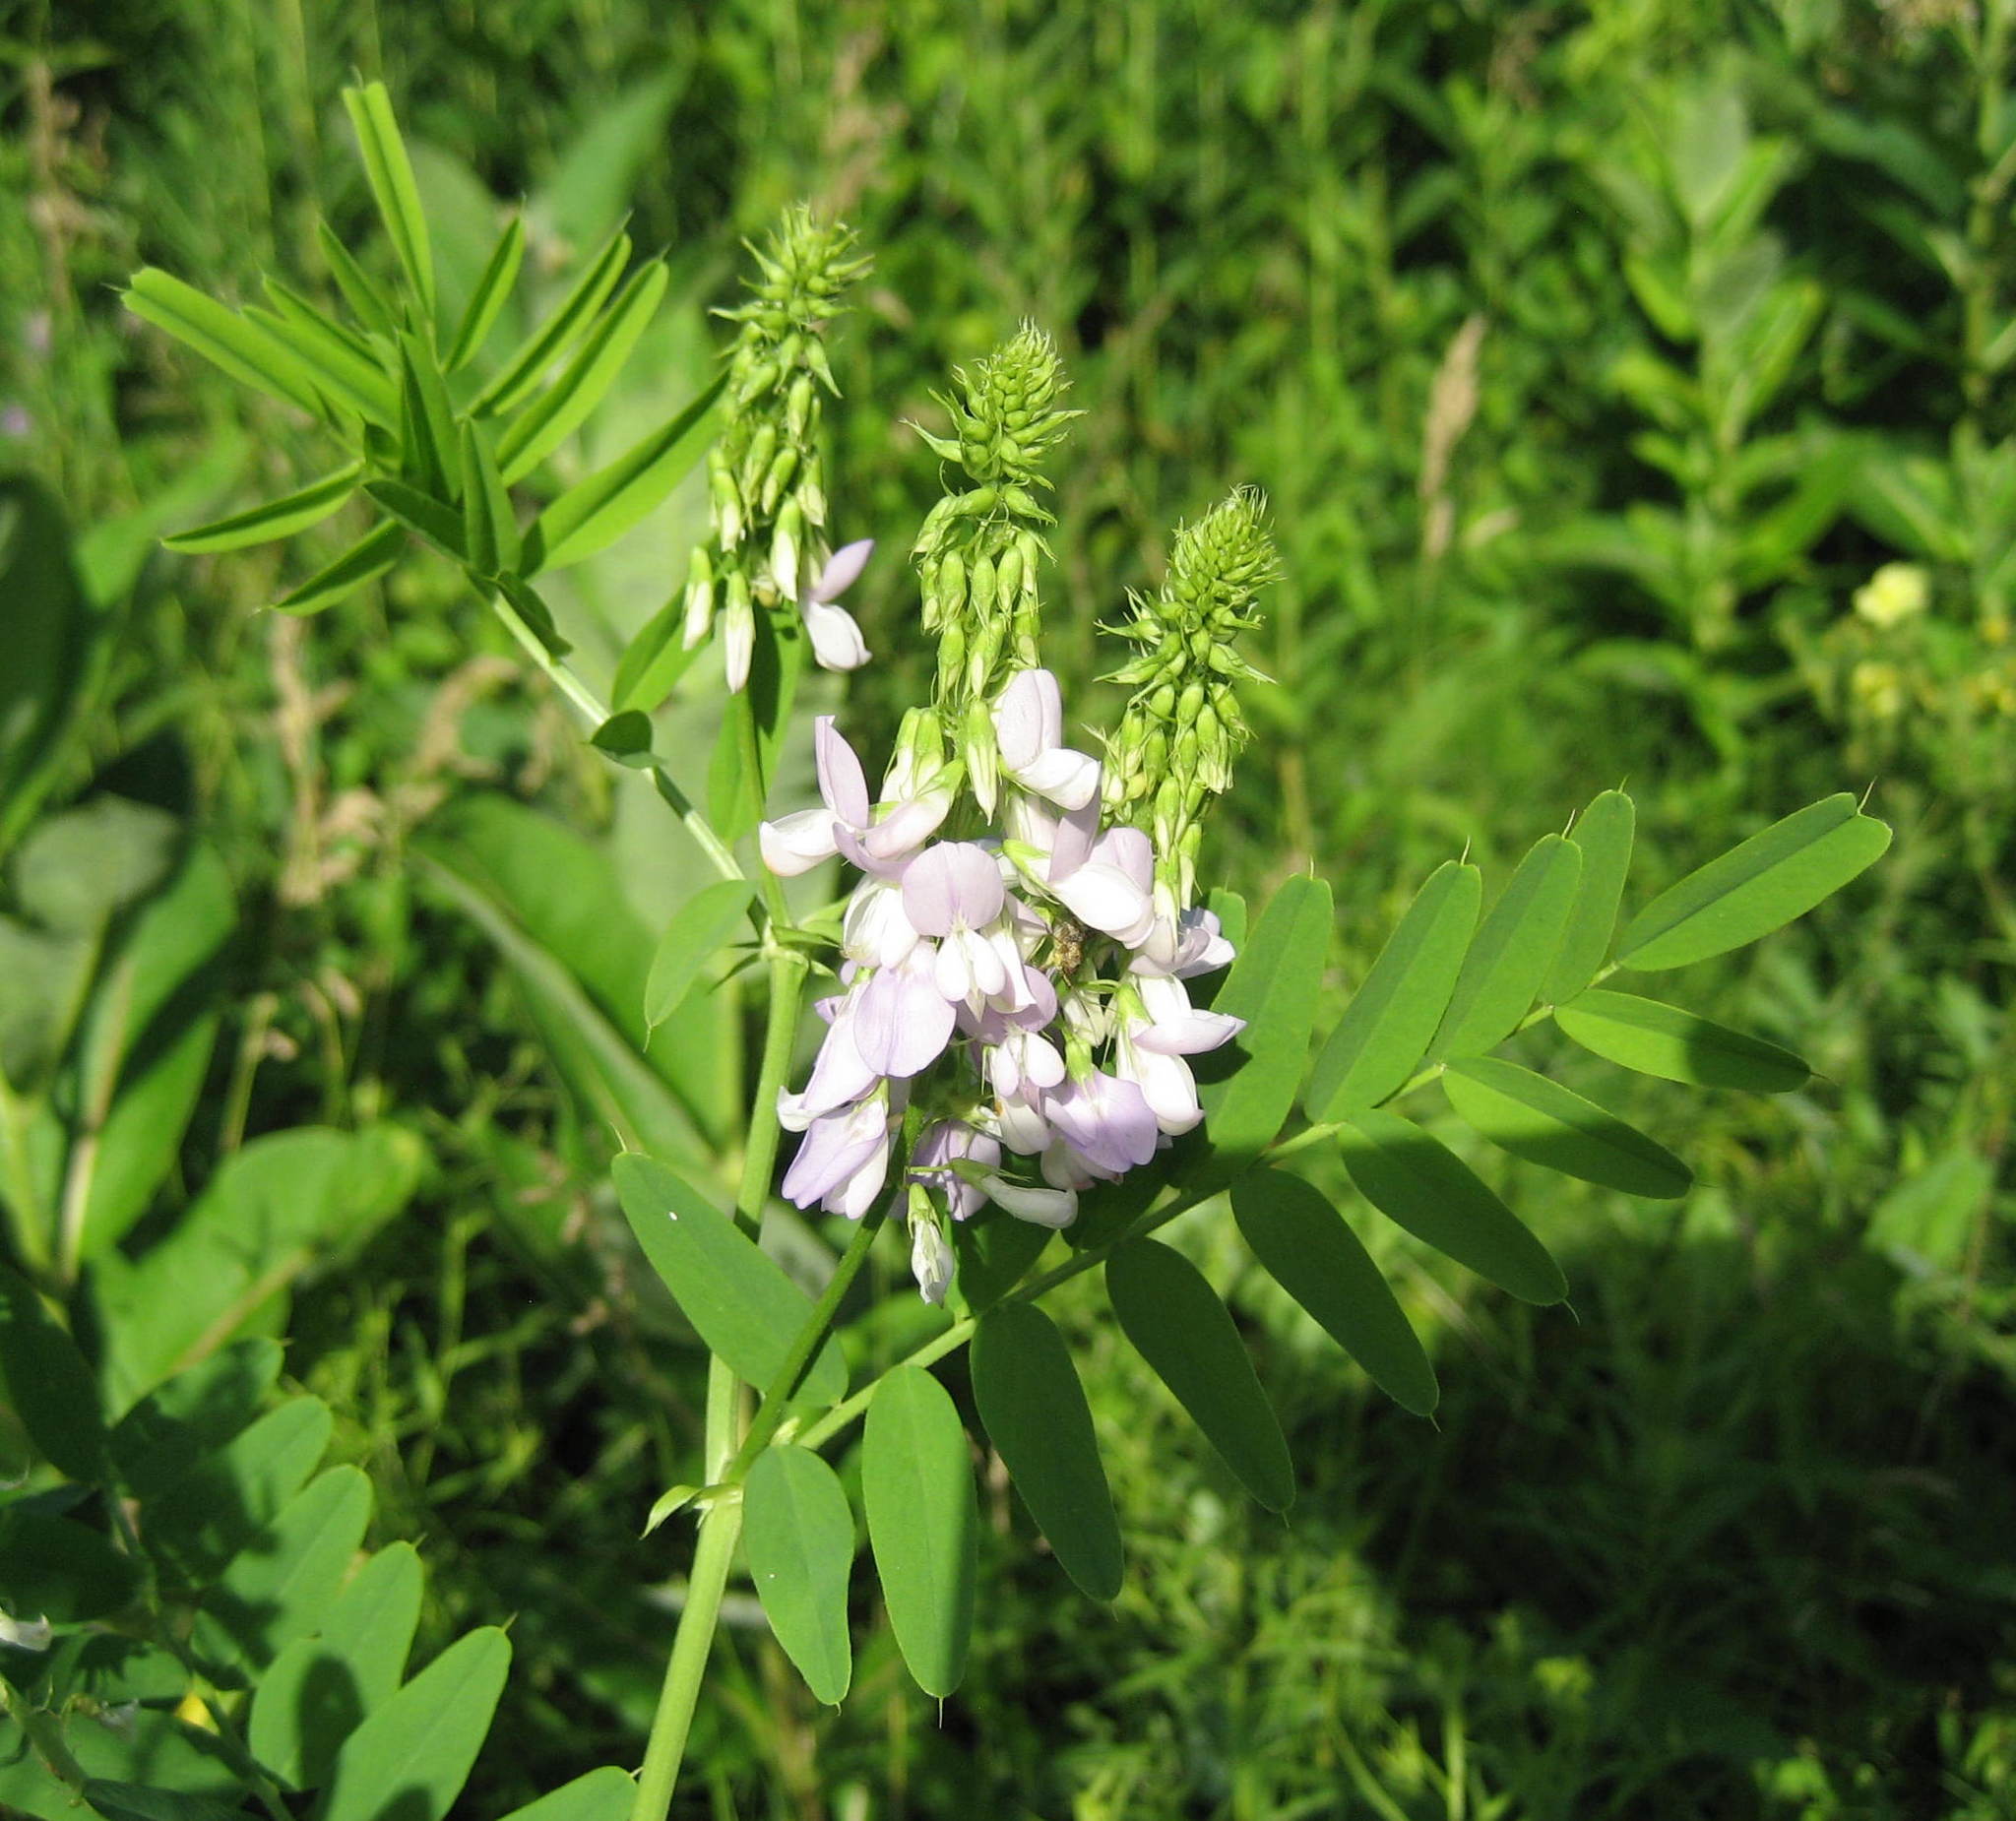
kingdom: Plantae
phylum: Tracheophyta
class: Magnoliopsida
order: Fabales
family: Fabaceae
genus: Galega
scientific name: Galega officinalis
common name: Goat's-rue
